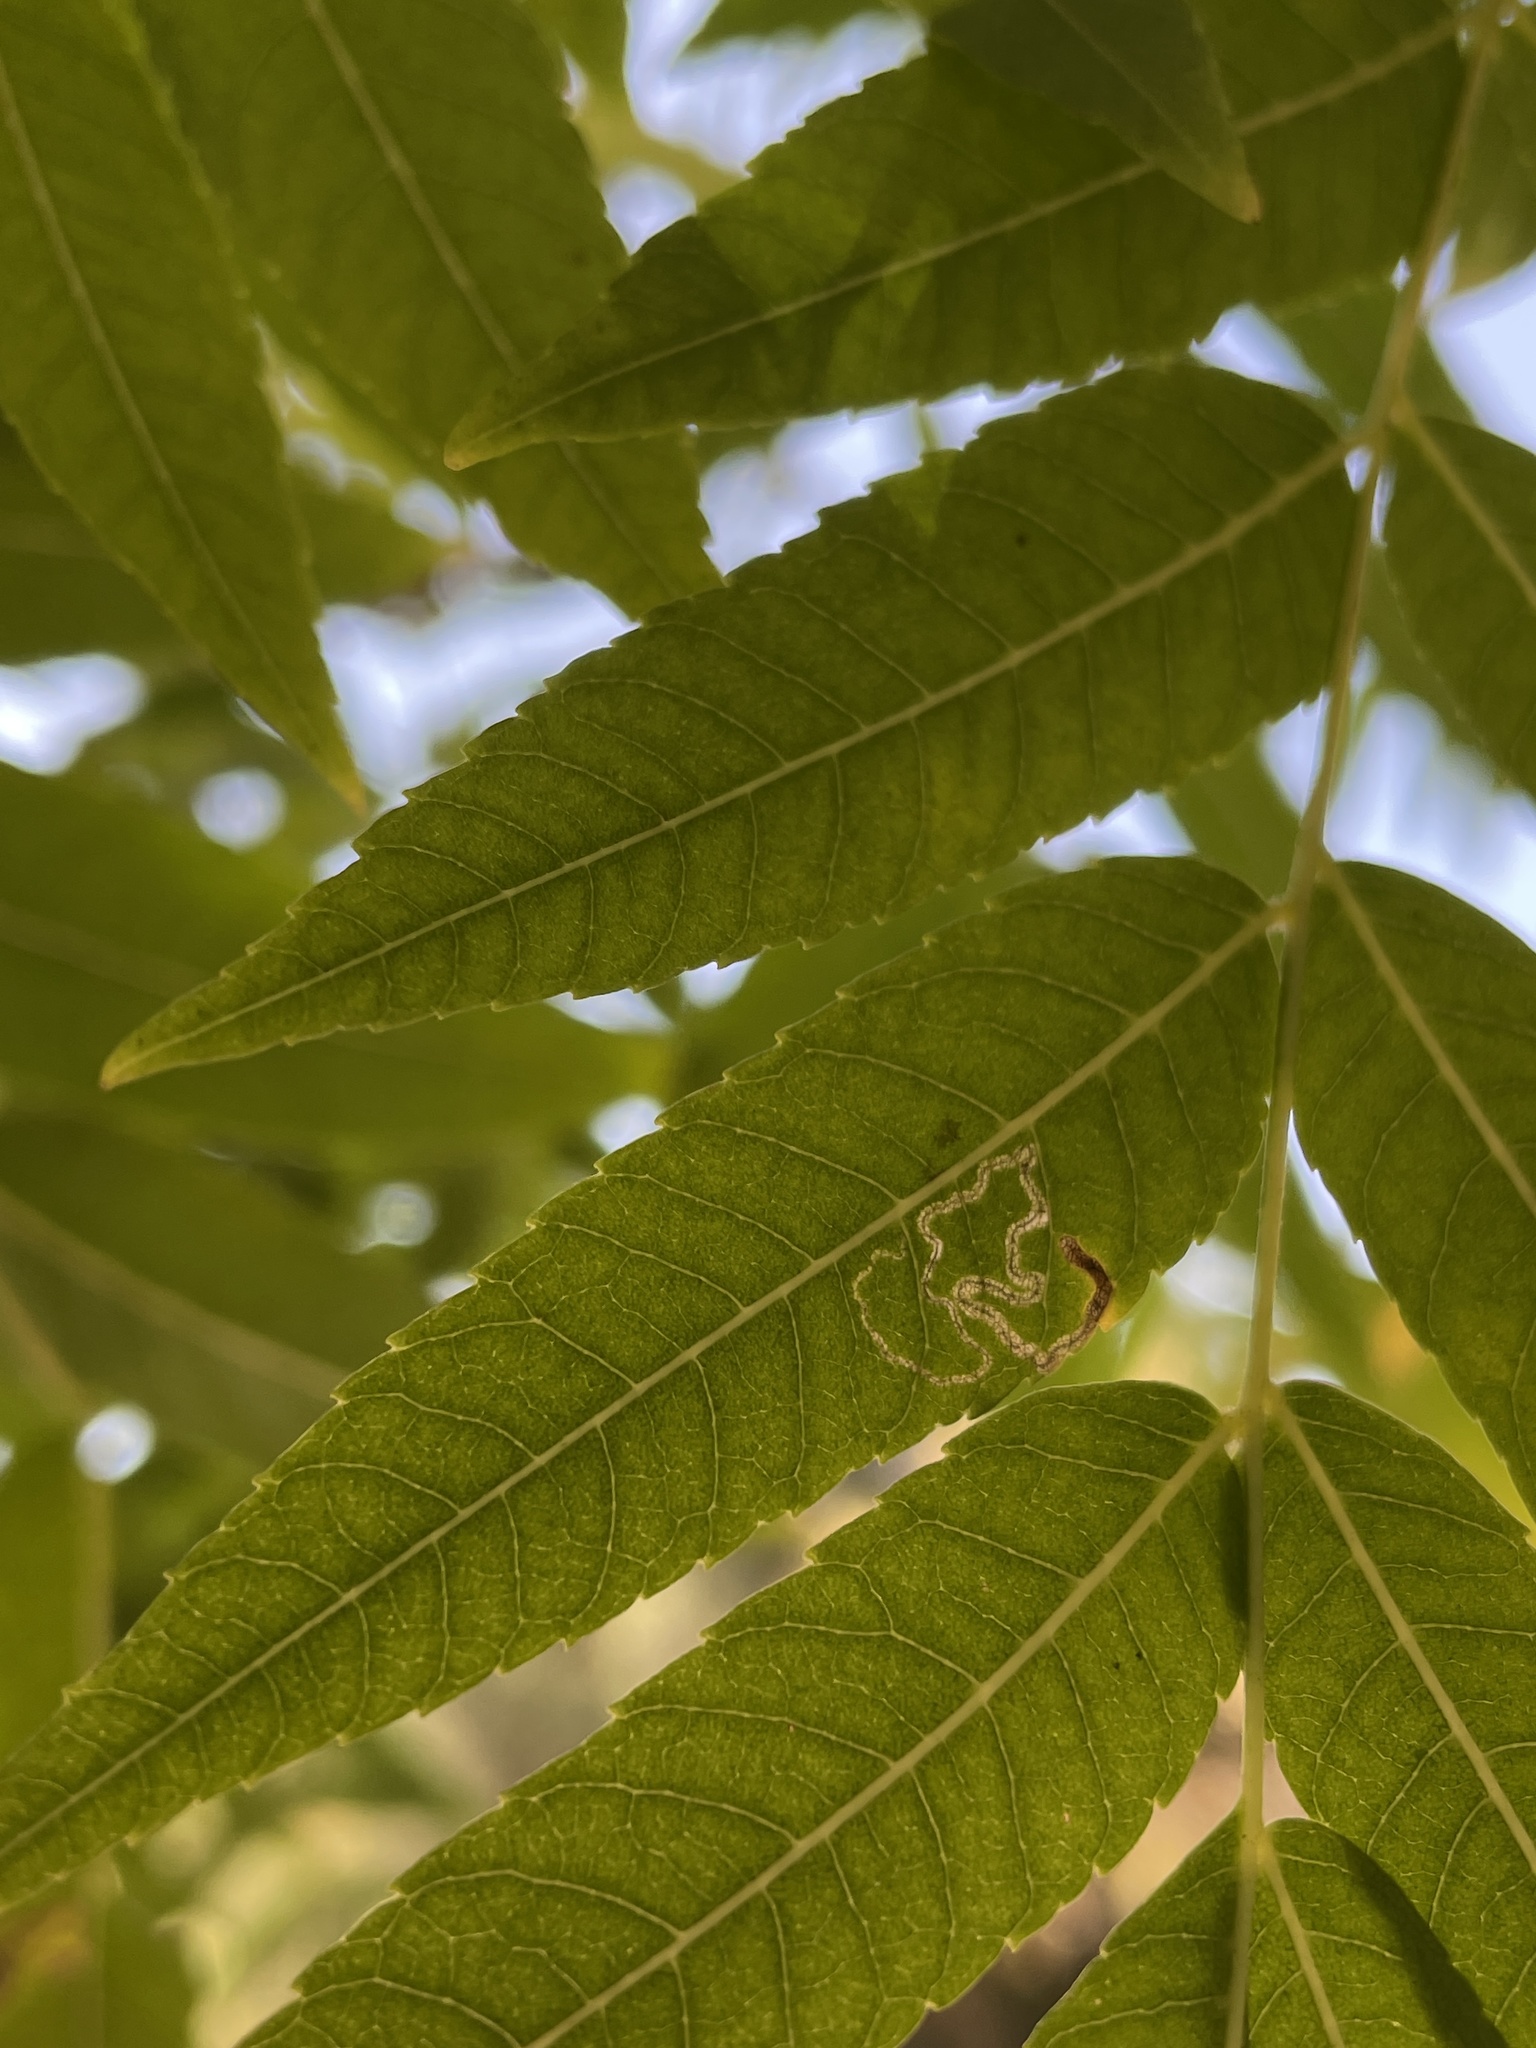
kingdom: Animalia
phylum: Arthropoda
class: Insecta
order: Lepidoptera
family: Nepticulidae
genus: Stigmella
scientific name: Stigmella longisacca
